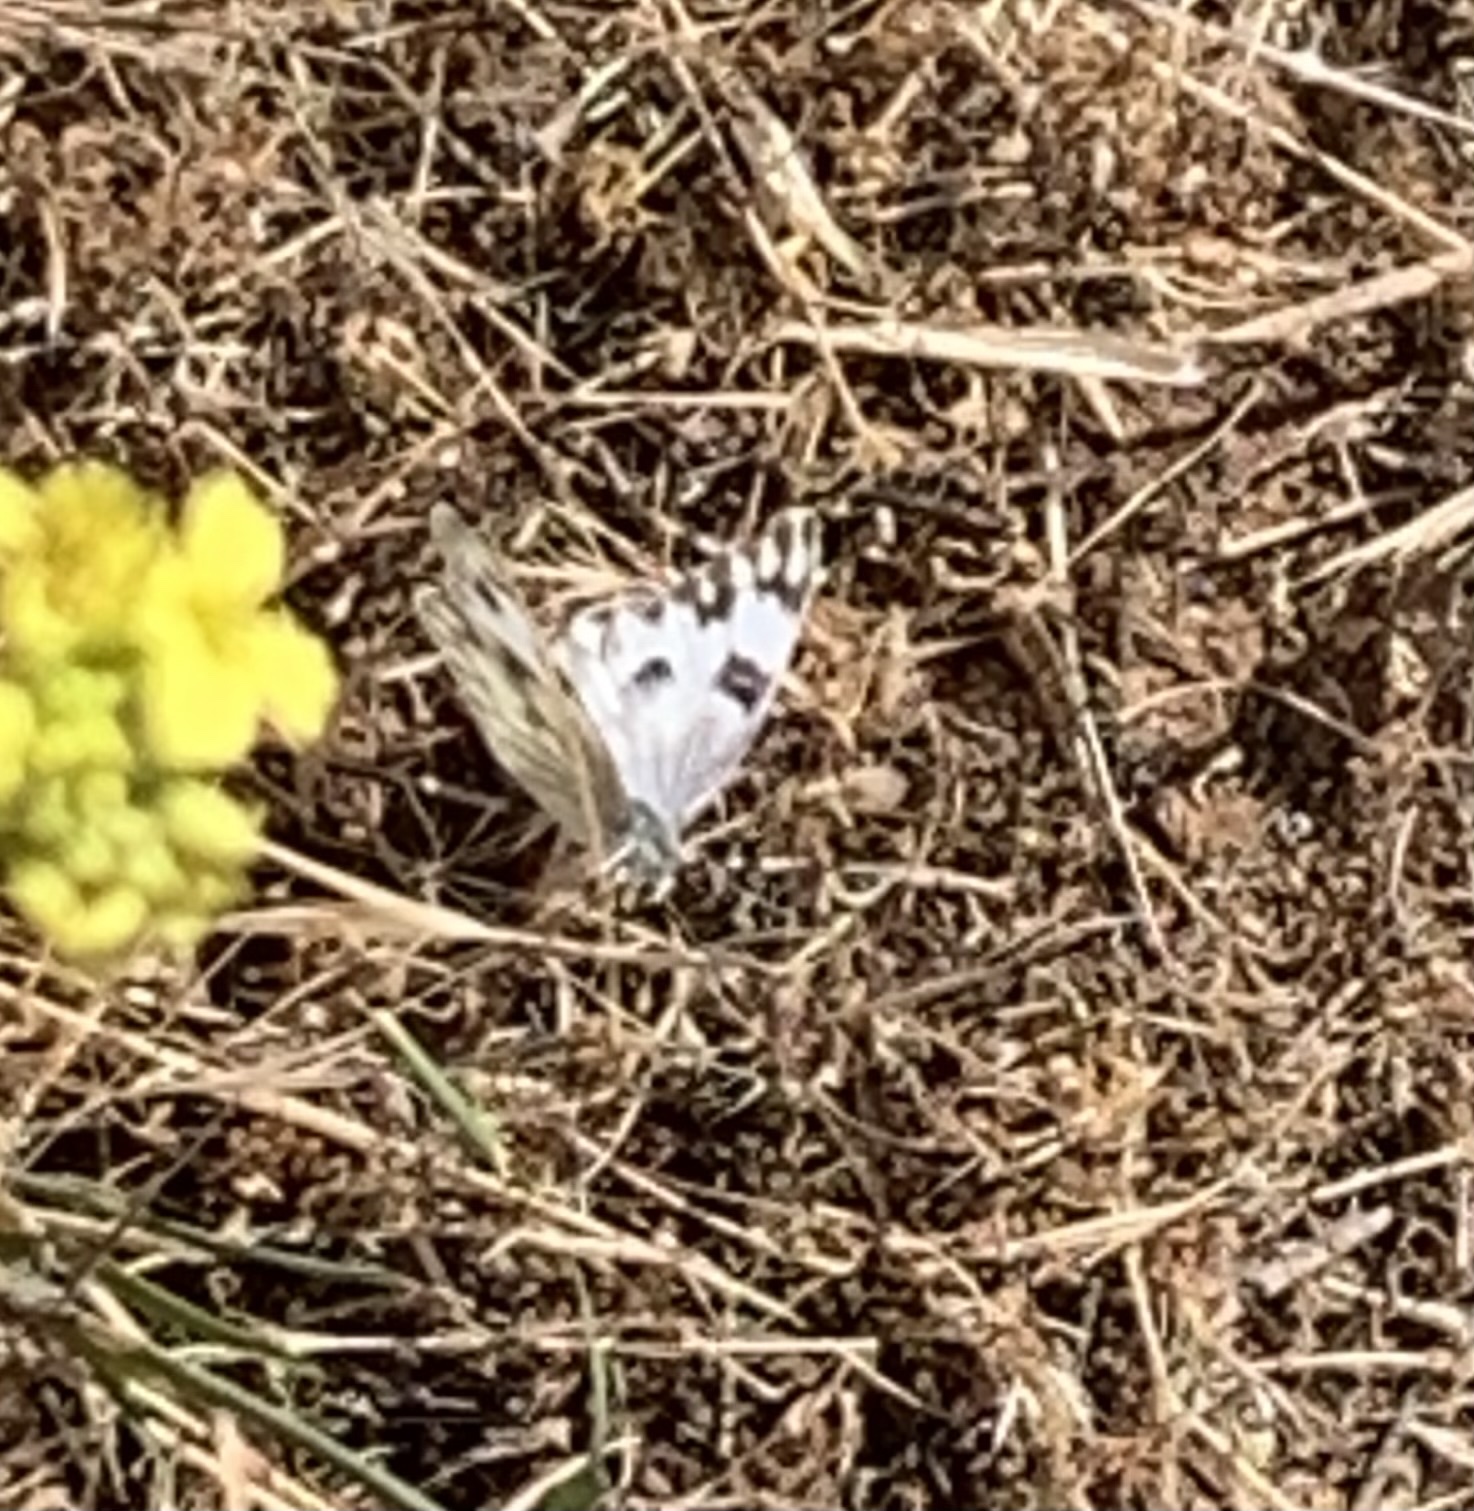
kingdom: Animalia
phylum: Arthropoda
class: Insecta
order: Lepidoptera
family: Pieridae
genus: Pontia
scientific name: Pontia protodice
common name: Checkered white
